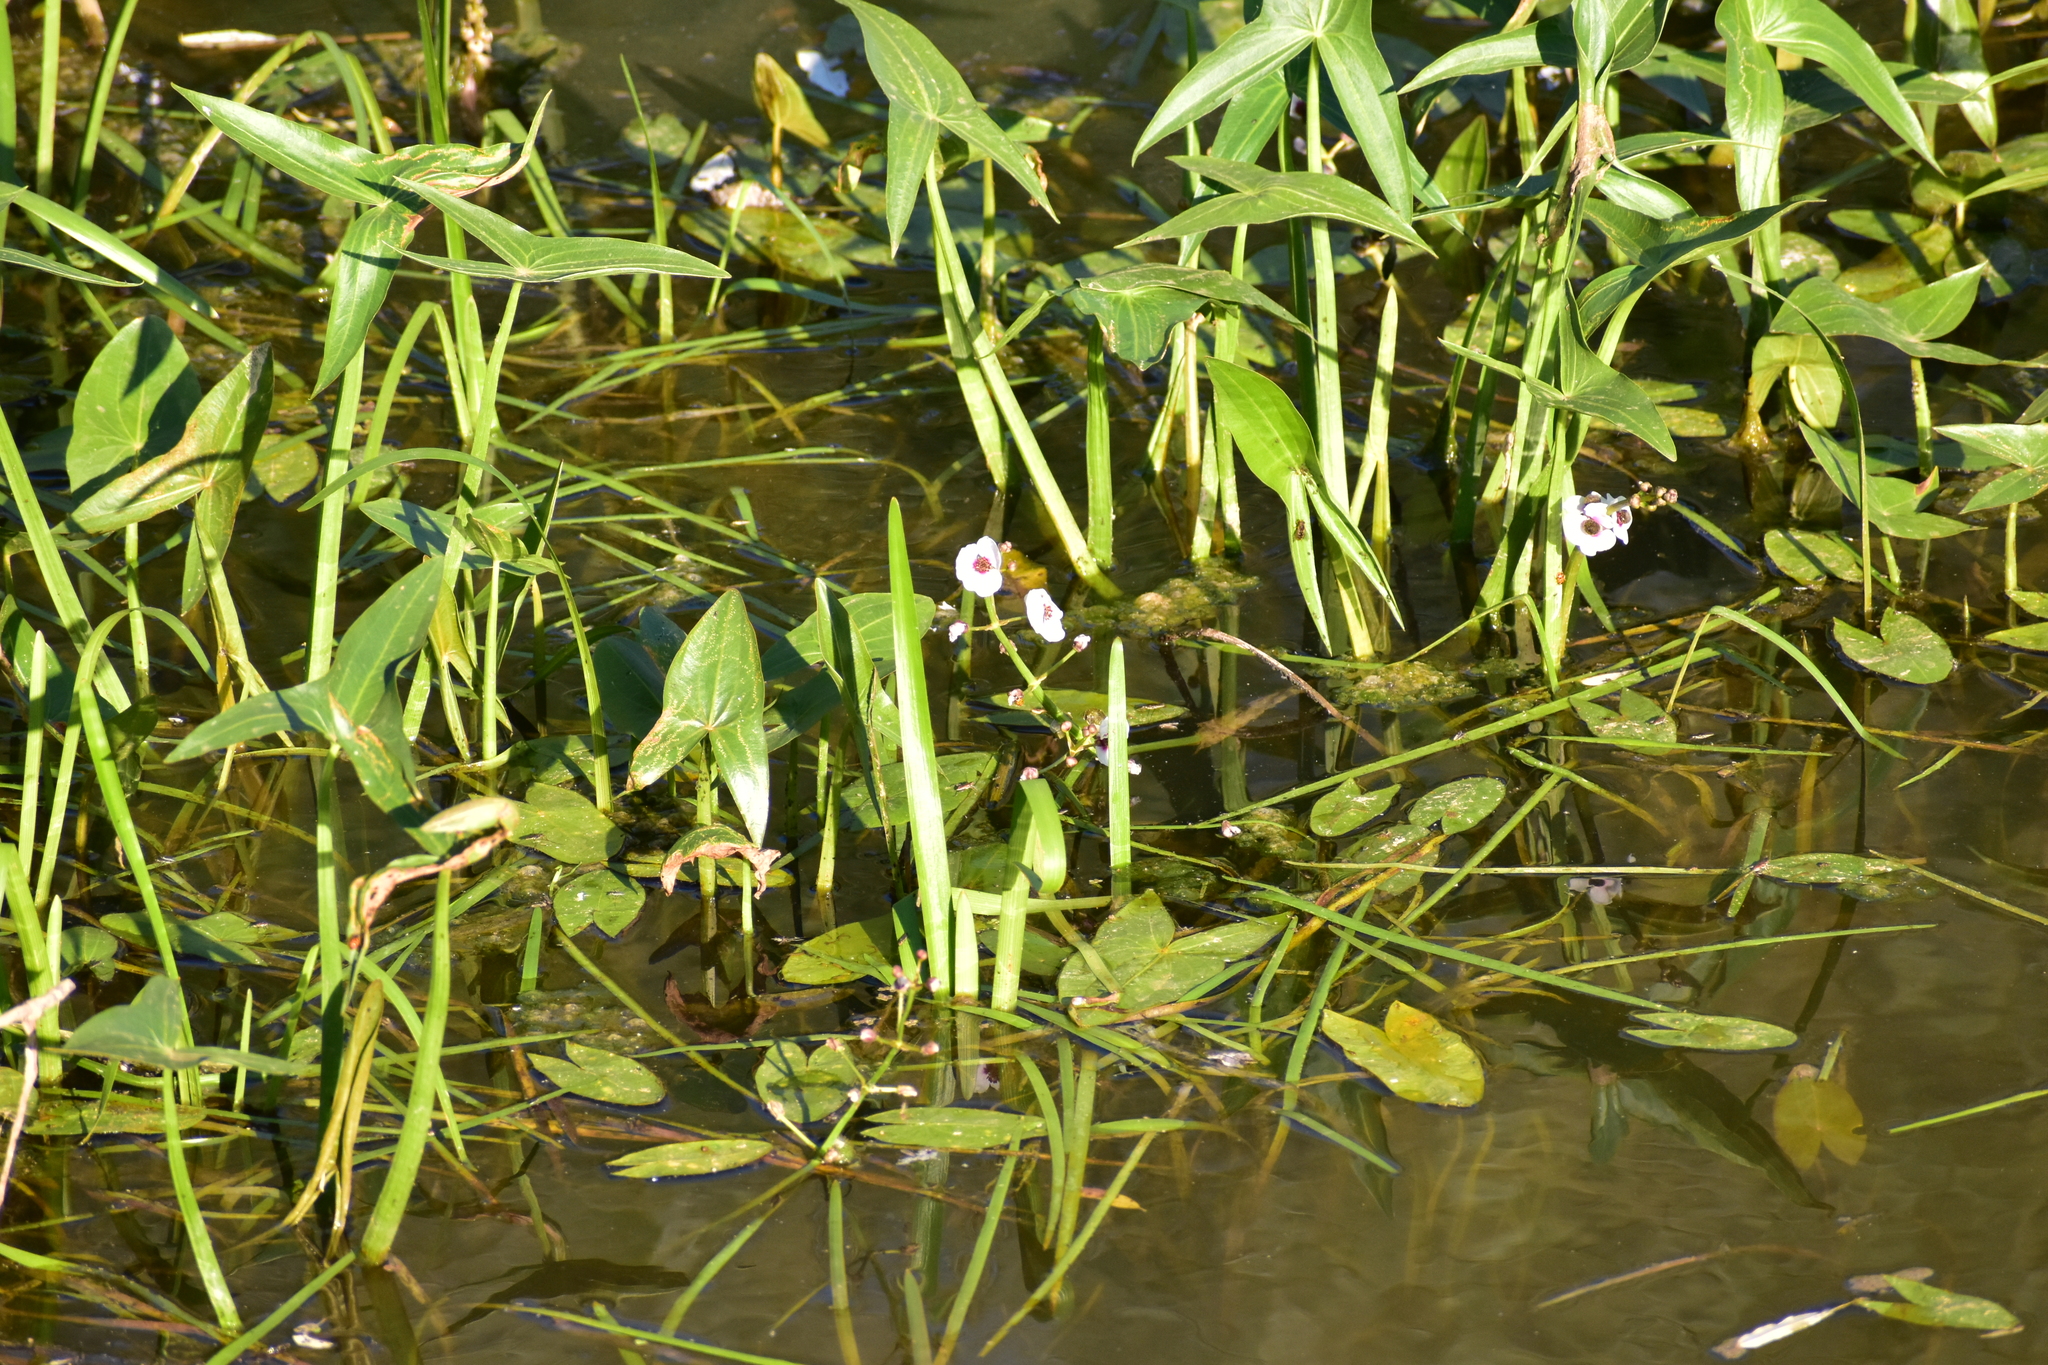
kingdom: Plantae
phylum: Tracheophyta
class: Liliopsida
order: Alismatales
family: Alismataceae
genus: Sagittaria
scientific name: Sagittaria sagittifolia
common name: Arrowhead
